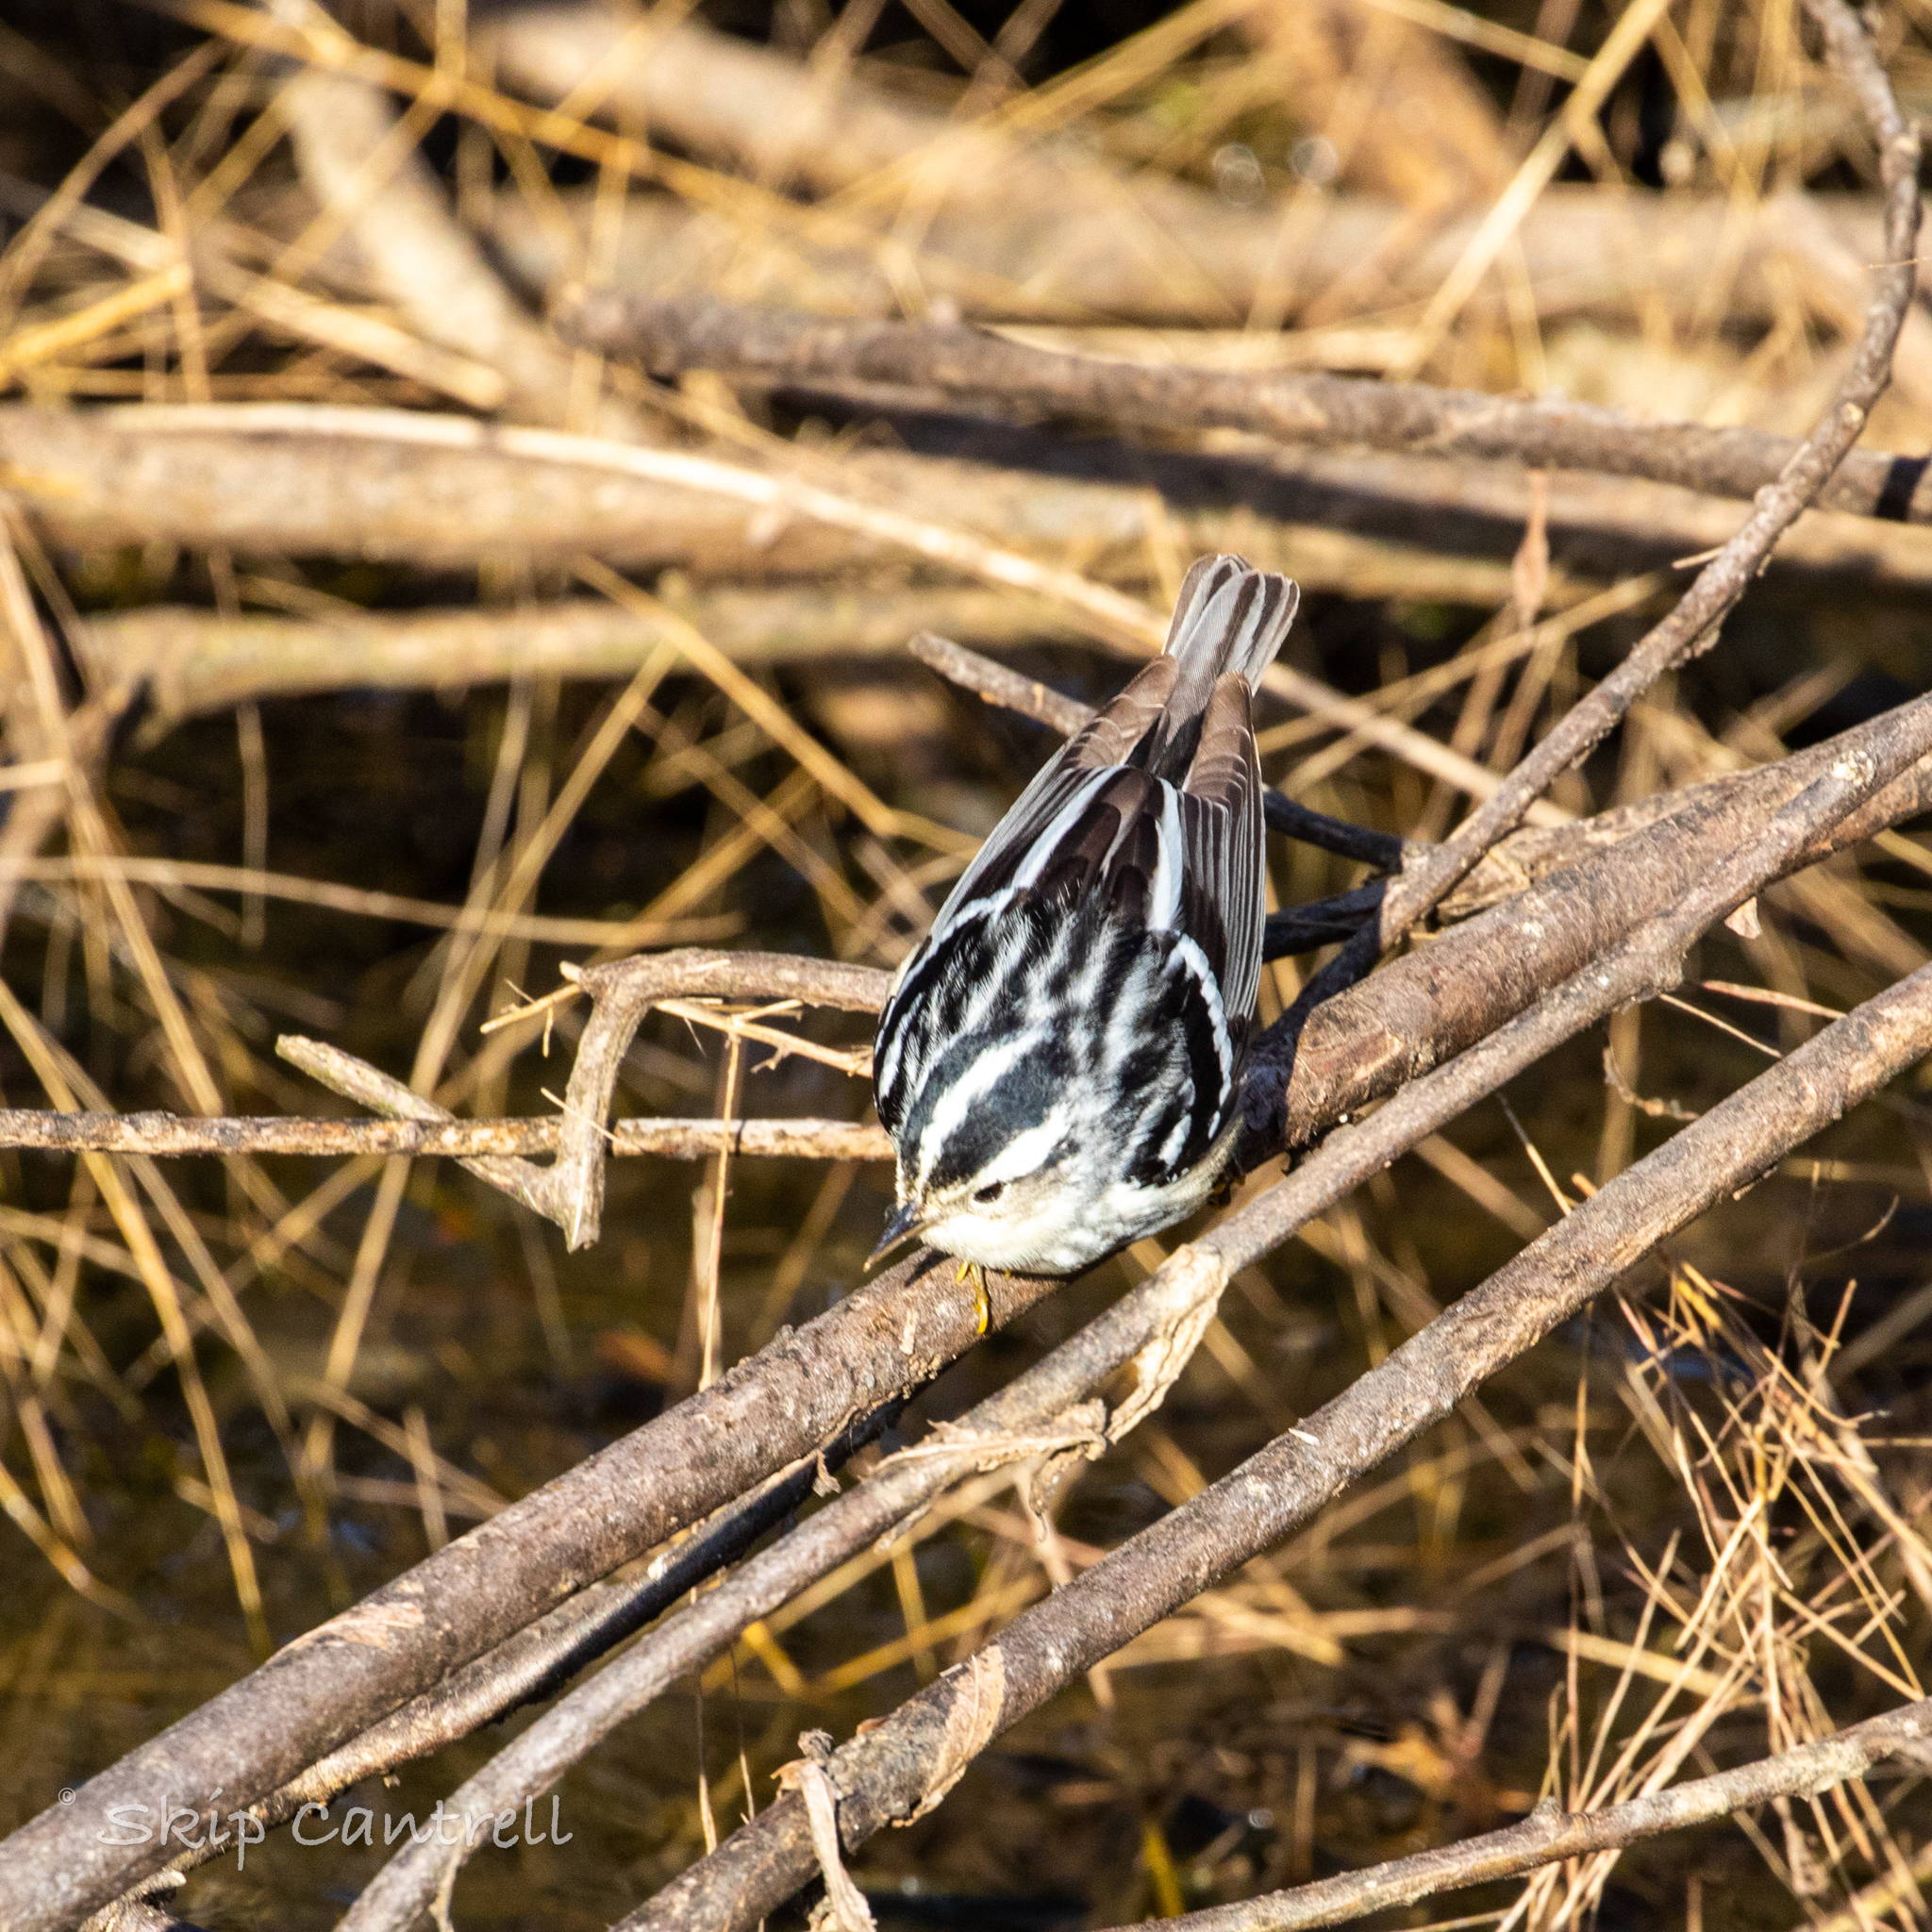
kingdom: Animalia
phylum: Chordata
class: Aves
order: Passeriformes
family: Parulidae
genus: Mniotilta
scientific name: Mniotilta varia
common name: Black-and-white warbler
